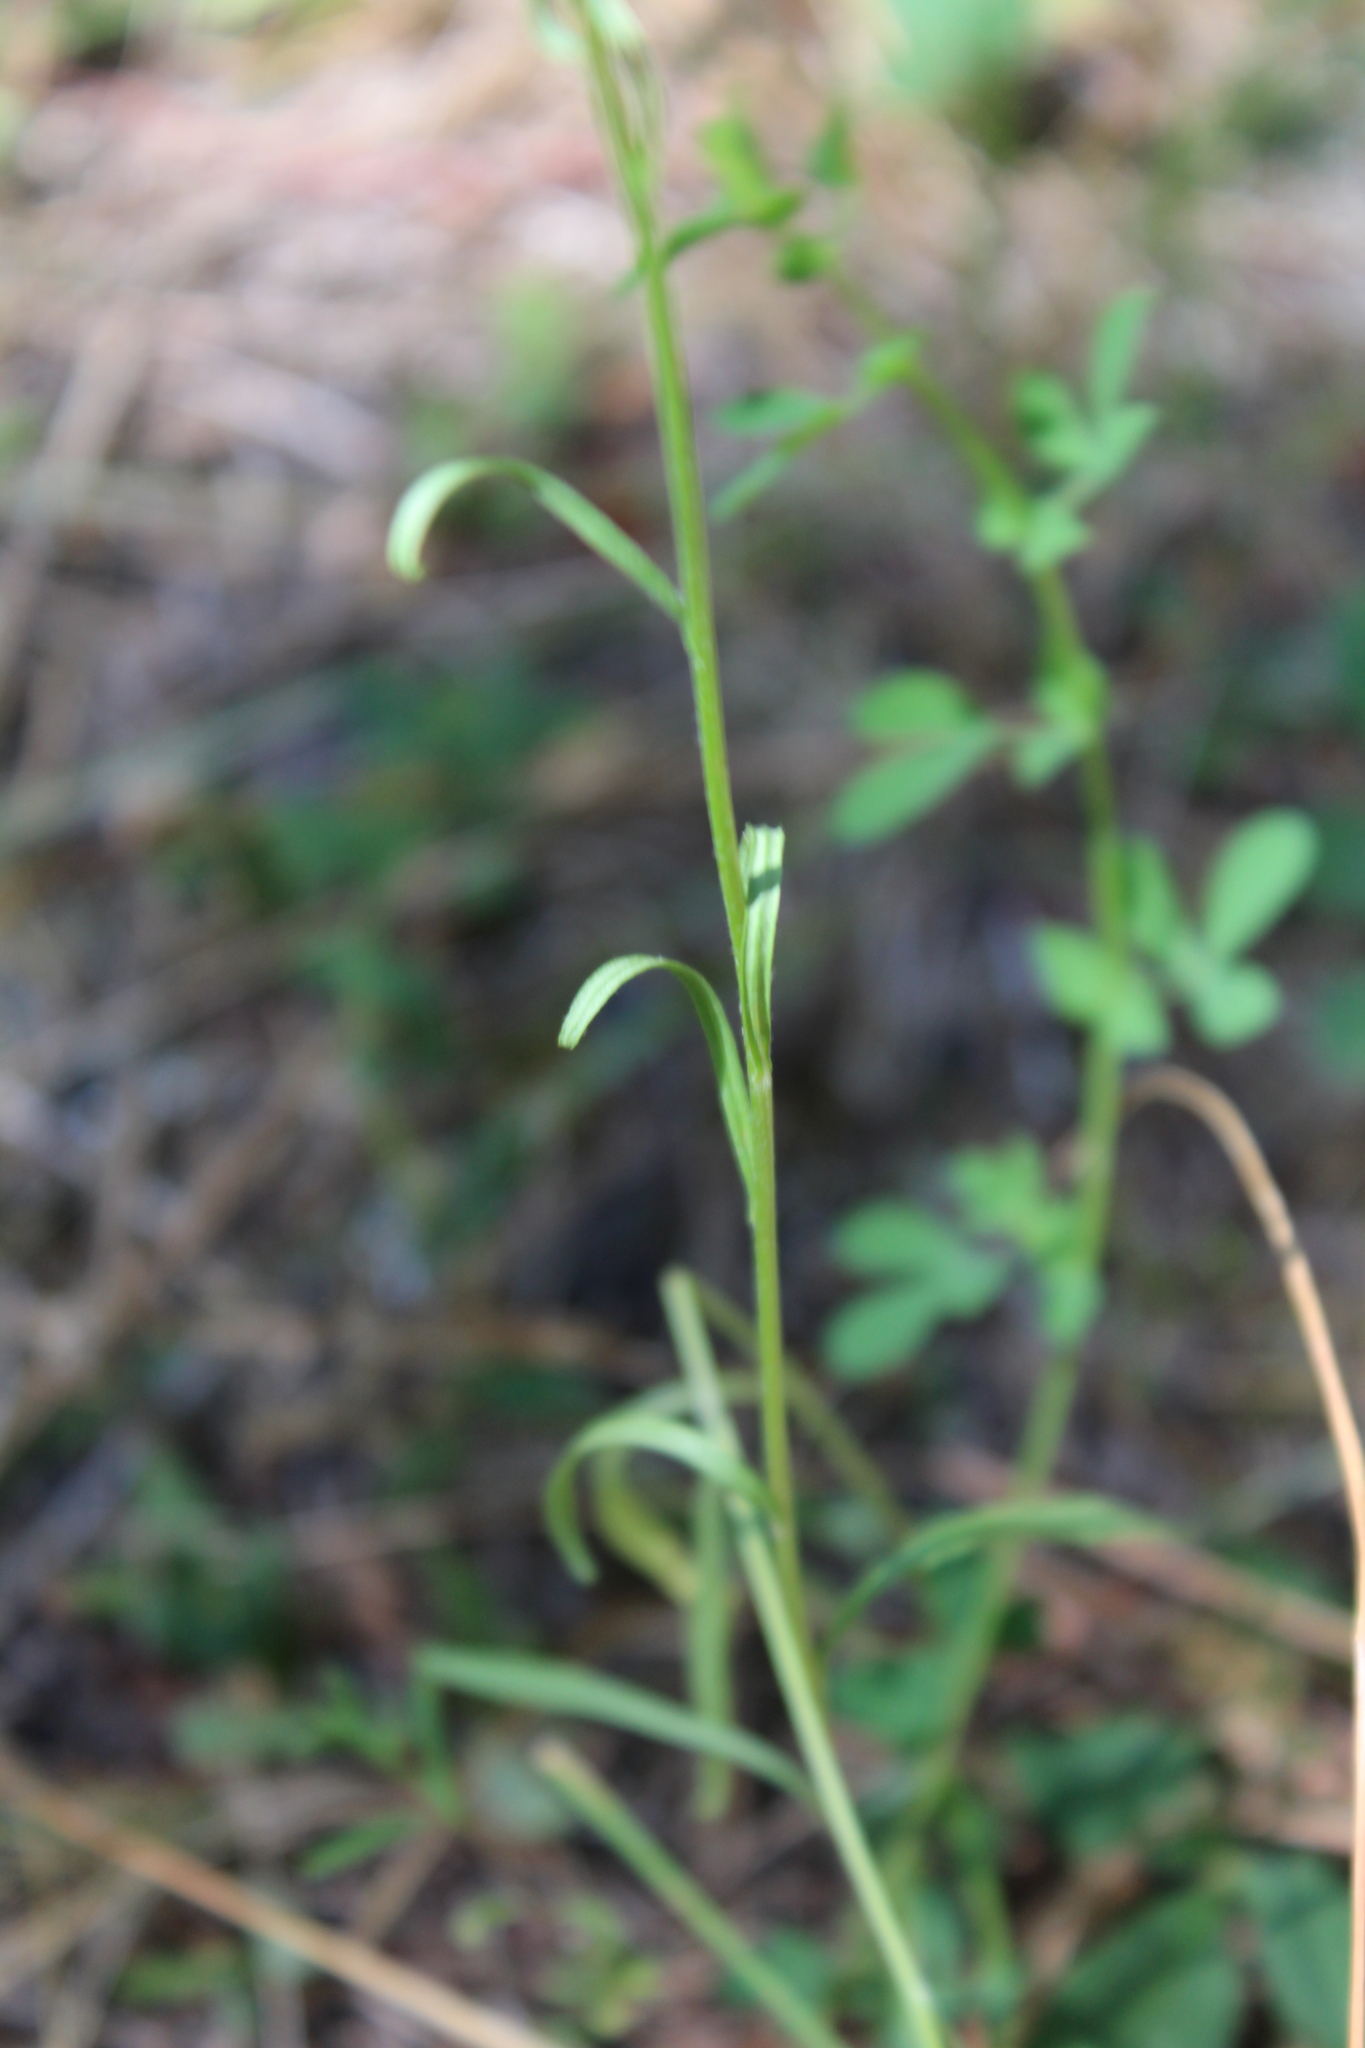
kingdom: Plantae
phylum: Tracheophyta
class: Magnoliopsida
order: Asterales
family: Asteraceae
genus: Crepis
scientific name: Crepis capillaris
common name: Smooth hawksbeard
